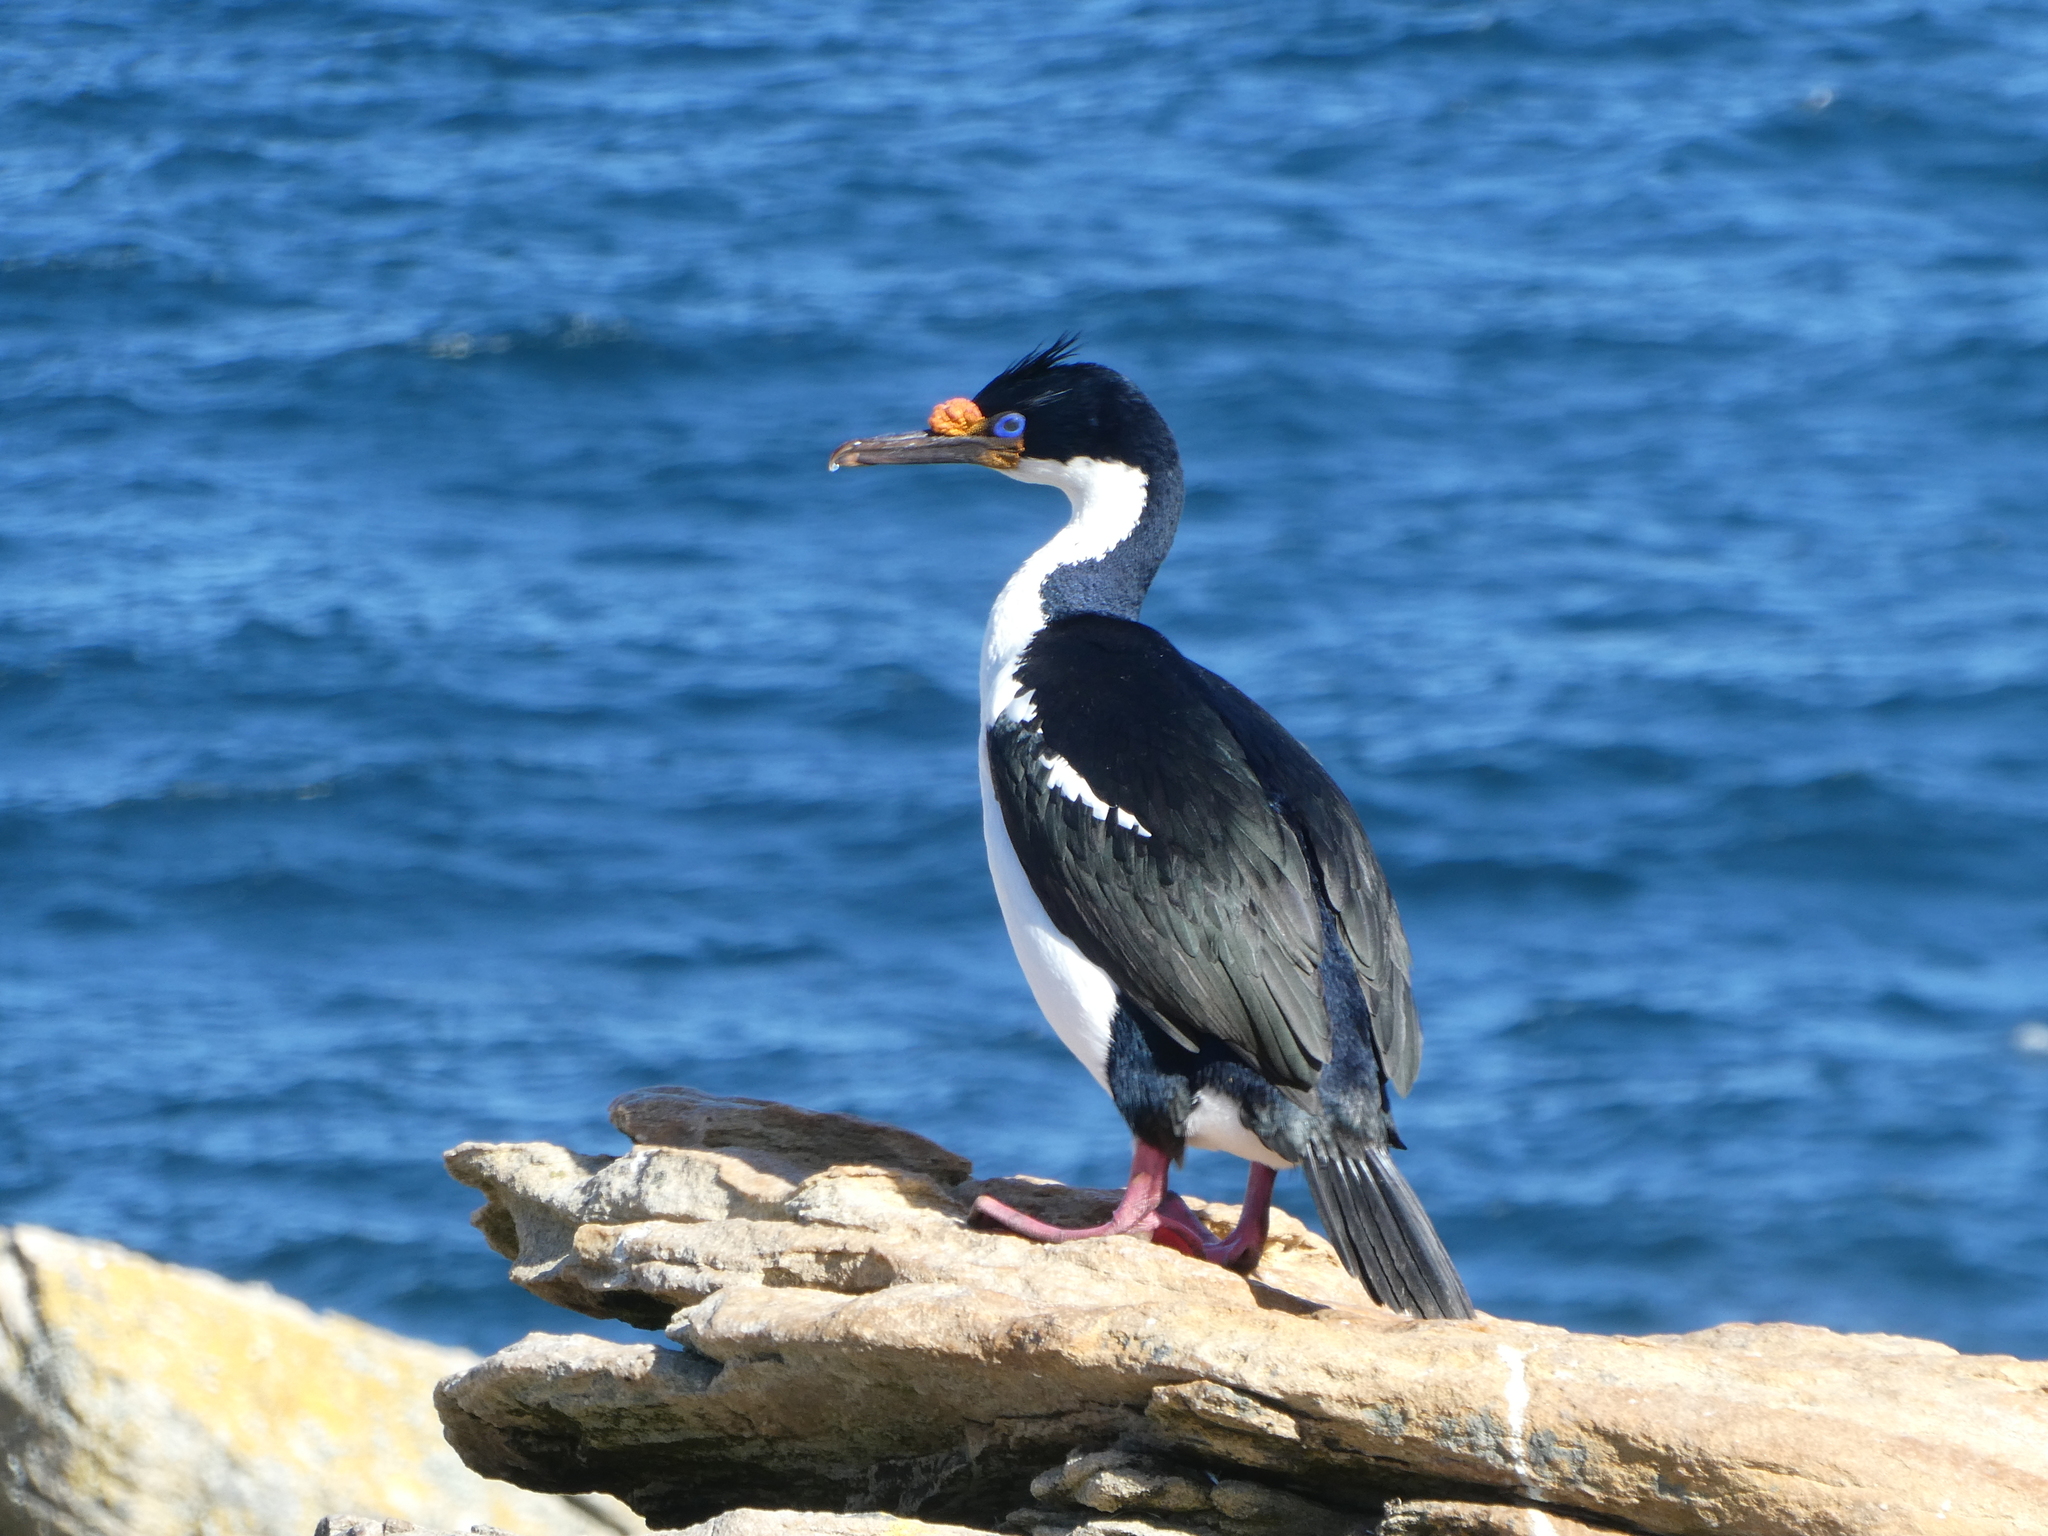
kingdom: Animalia
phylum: Chordata
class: Aves
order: Suliformes
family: Phalacrocoracidae
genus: Leucocarbo
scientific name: Leucocarbo atriceps
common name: Imperial shag
